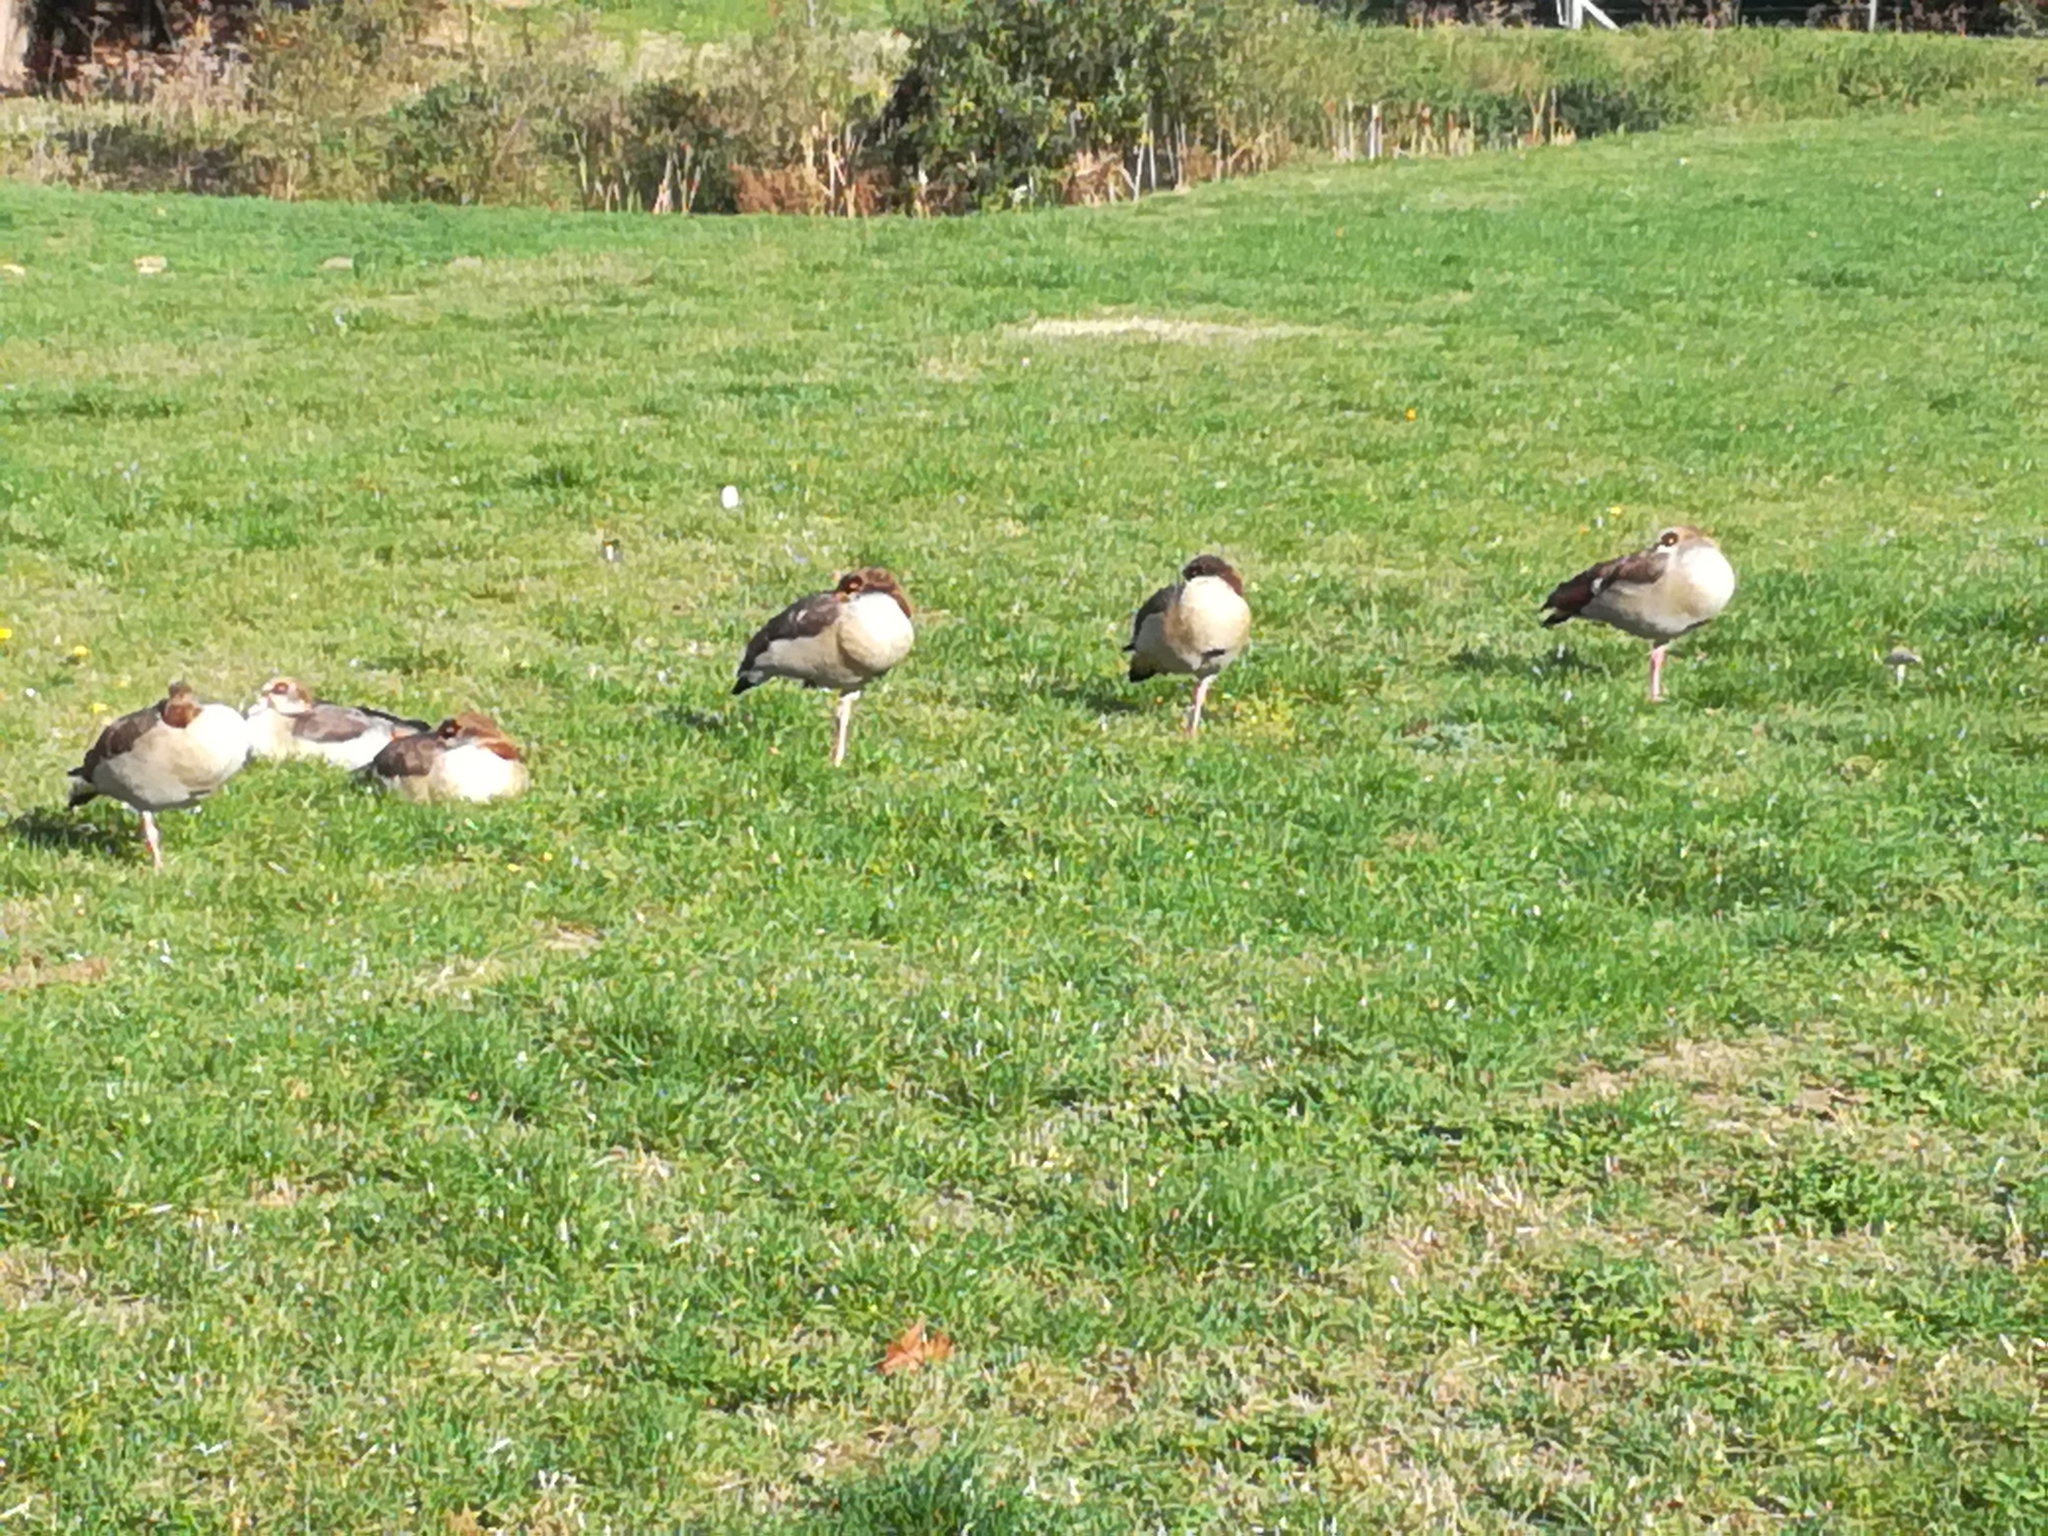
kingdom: Animalia
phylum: Chordata
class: Aves
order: Anseriformes
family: Anatidae
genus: Alopochen
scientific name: Alopochen aegyptiaca
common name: Egyptian goose
